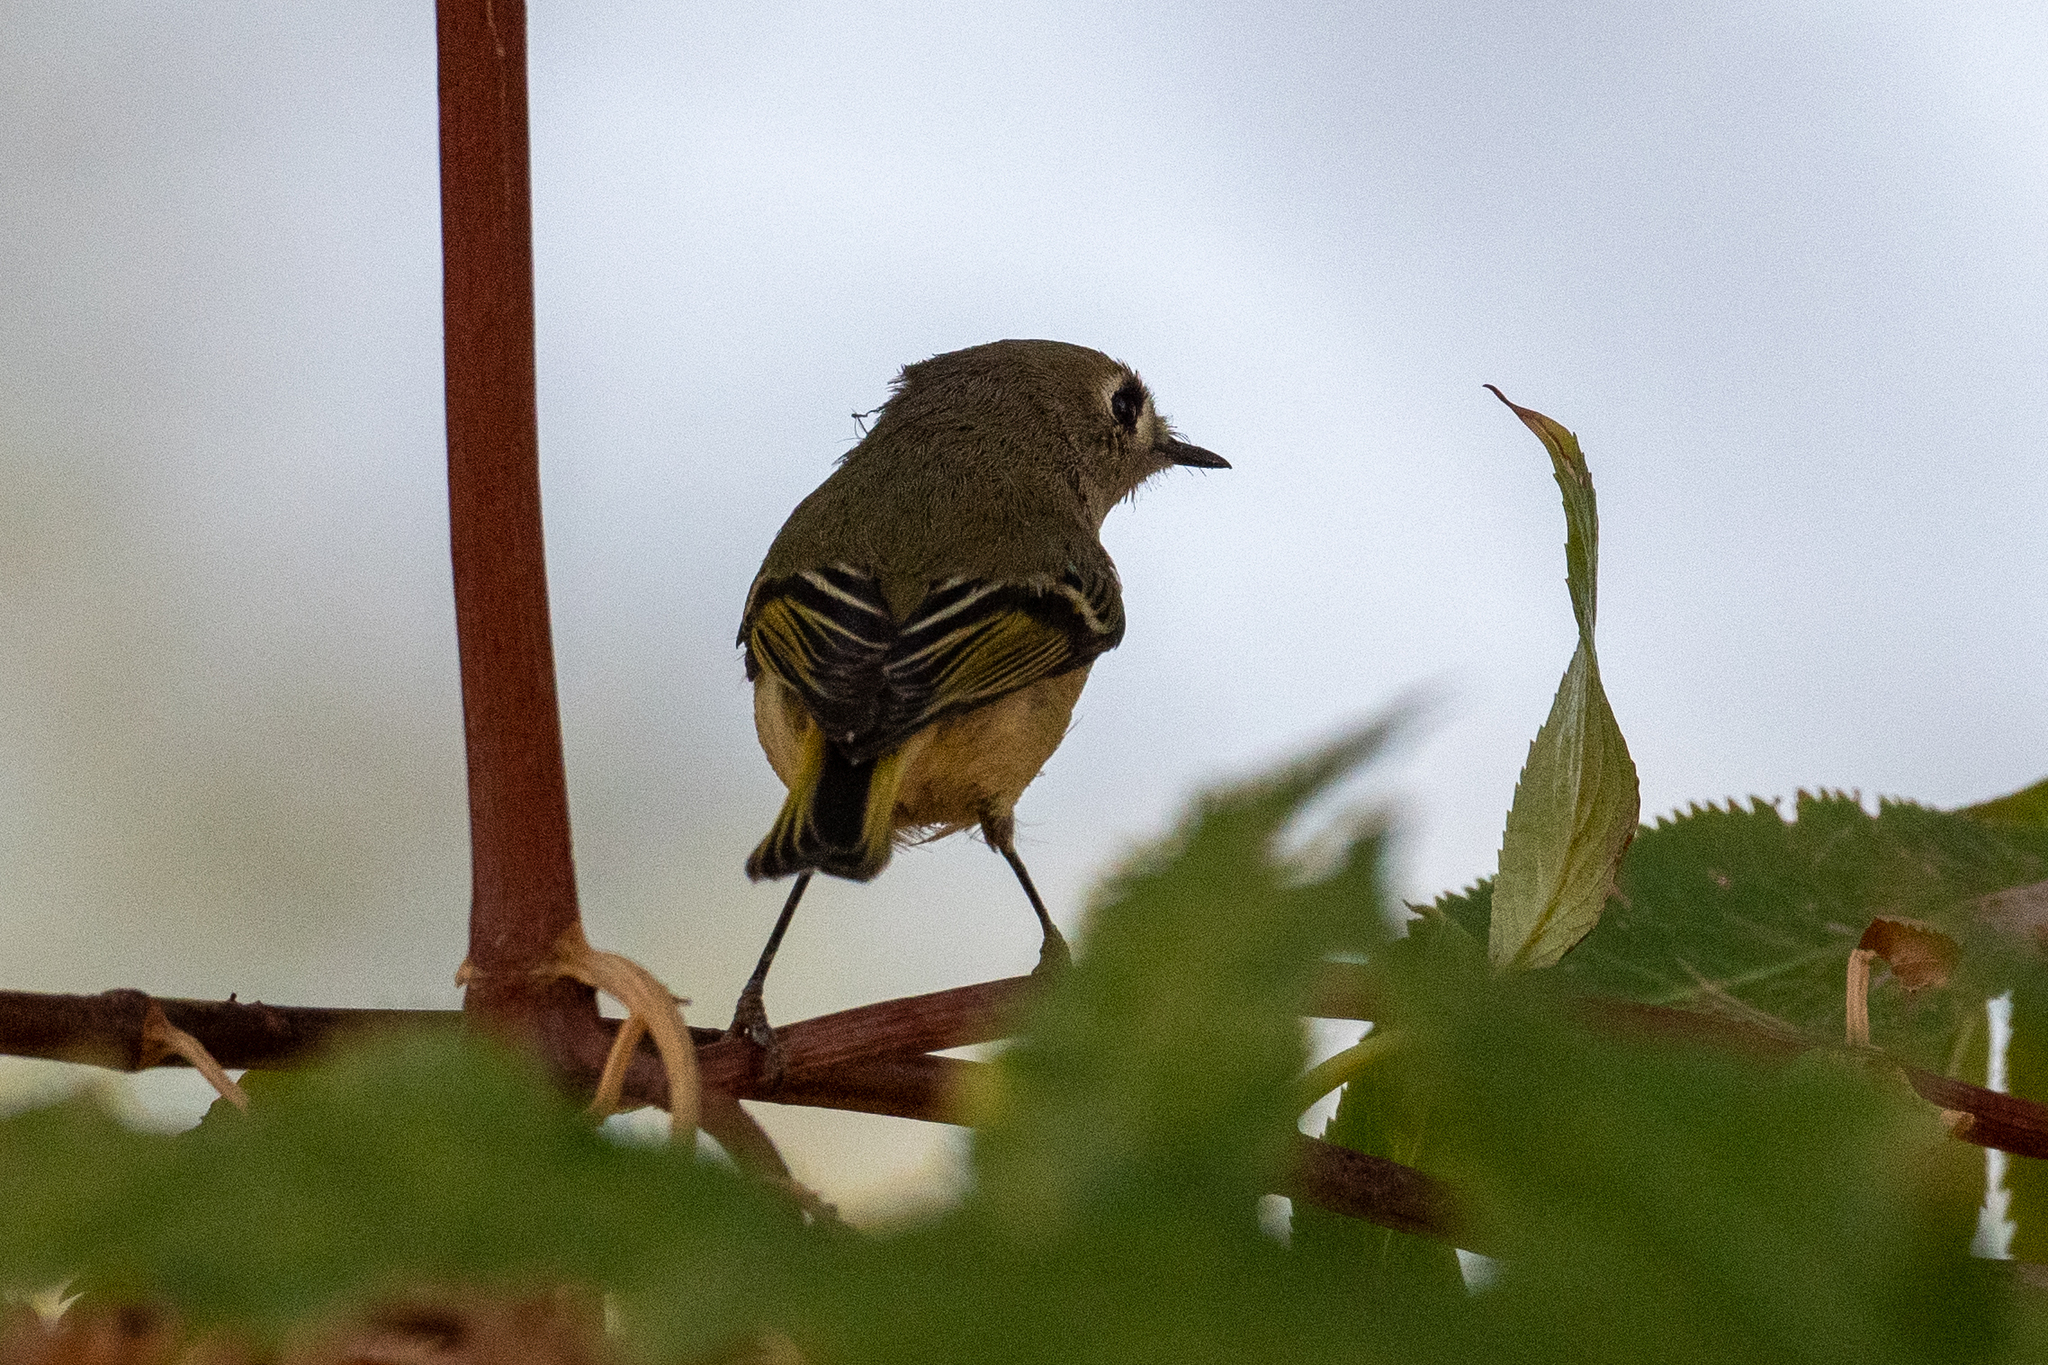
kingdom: Animalia
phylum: Chordata
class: Aves
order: Passeriformes
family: Regulidae
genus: Regulus
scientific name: Regulus calendula
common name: Ruby-crowned kinglet
